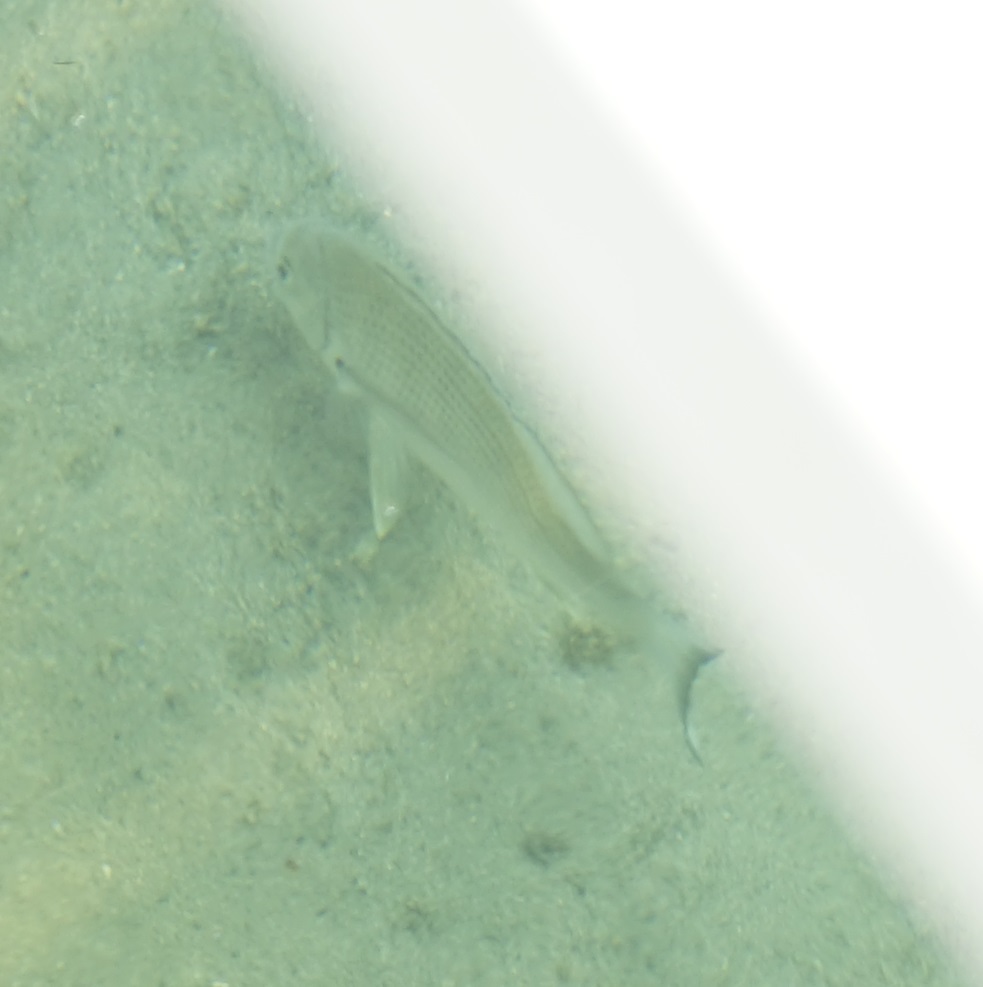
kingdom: Animalia
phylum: Chordata
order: Perciformes
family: Sparidae
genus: Acanthopagrus
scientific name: Acanthopagrus australis
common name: Surf bream
